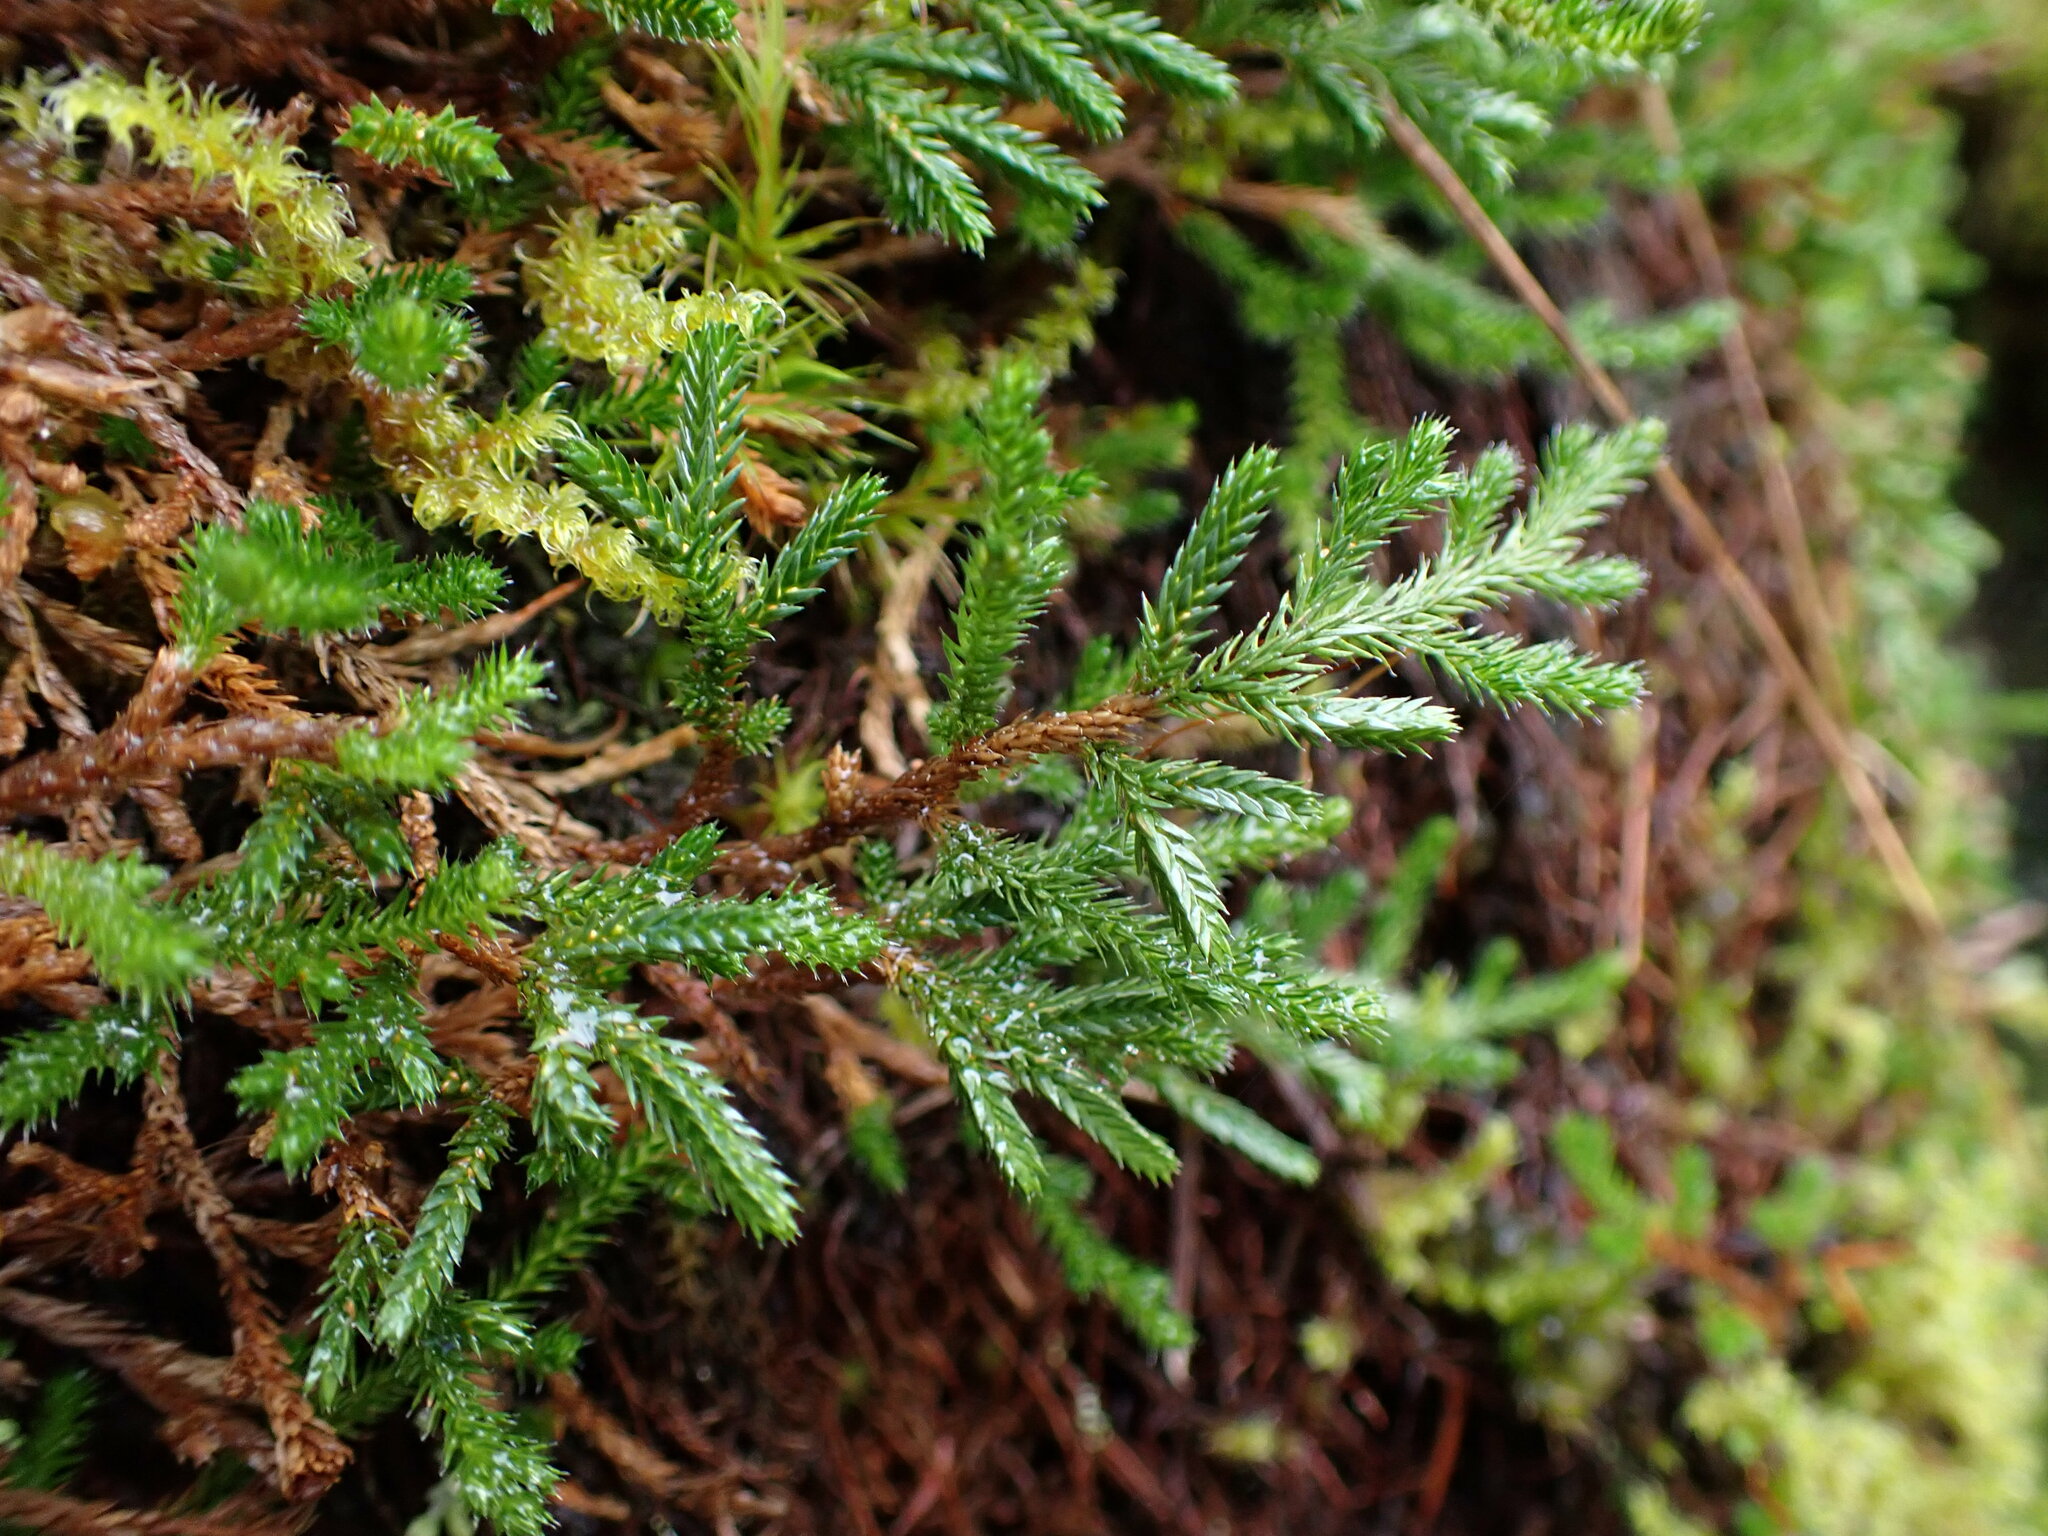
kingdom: Plantae
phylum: Tracheophyta
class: Lycopodiopsida
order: Selaginellales
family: Selaginellaceae
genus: Selaginella
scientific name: Selaginella wallacei
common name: Wallace's selaginella
